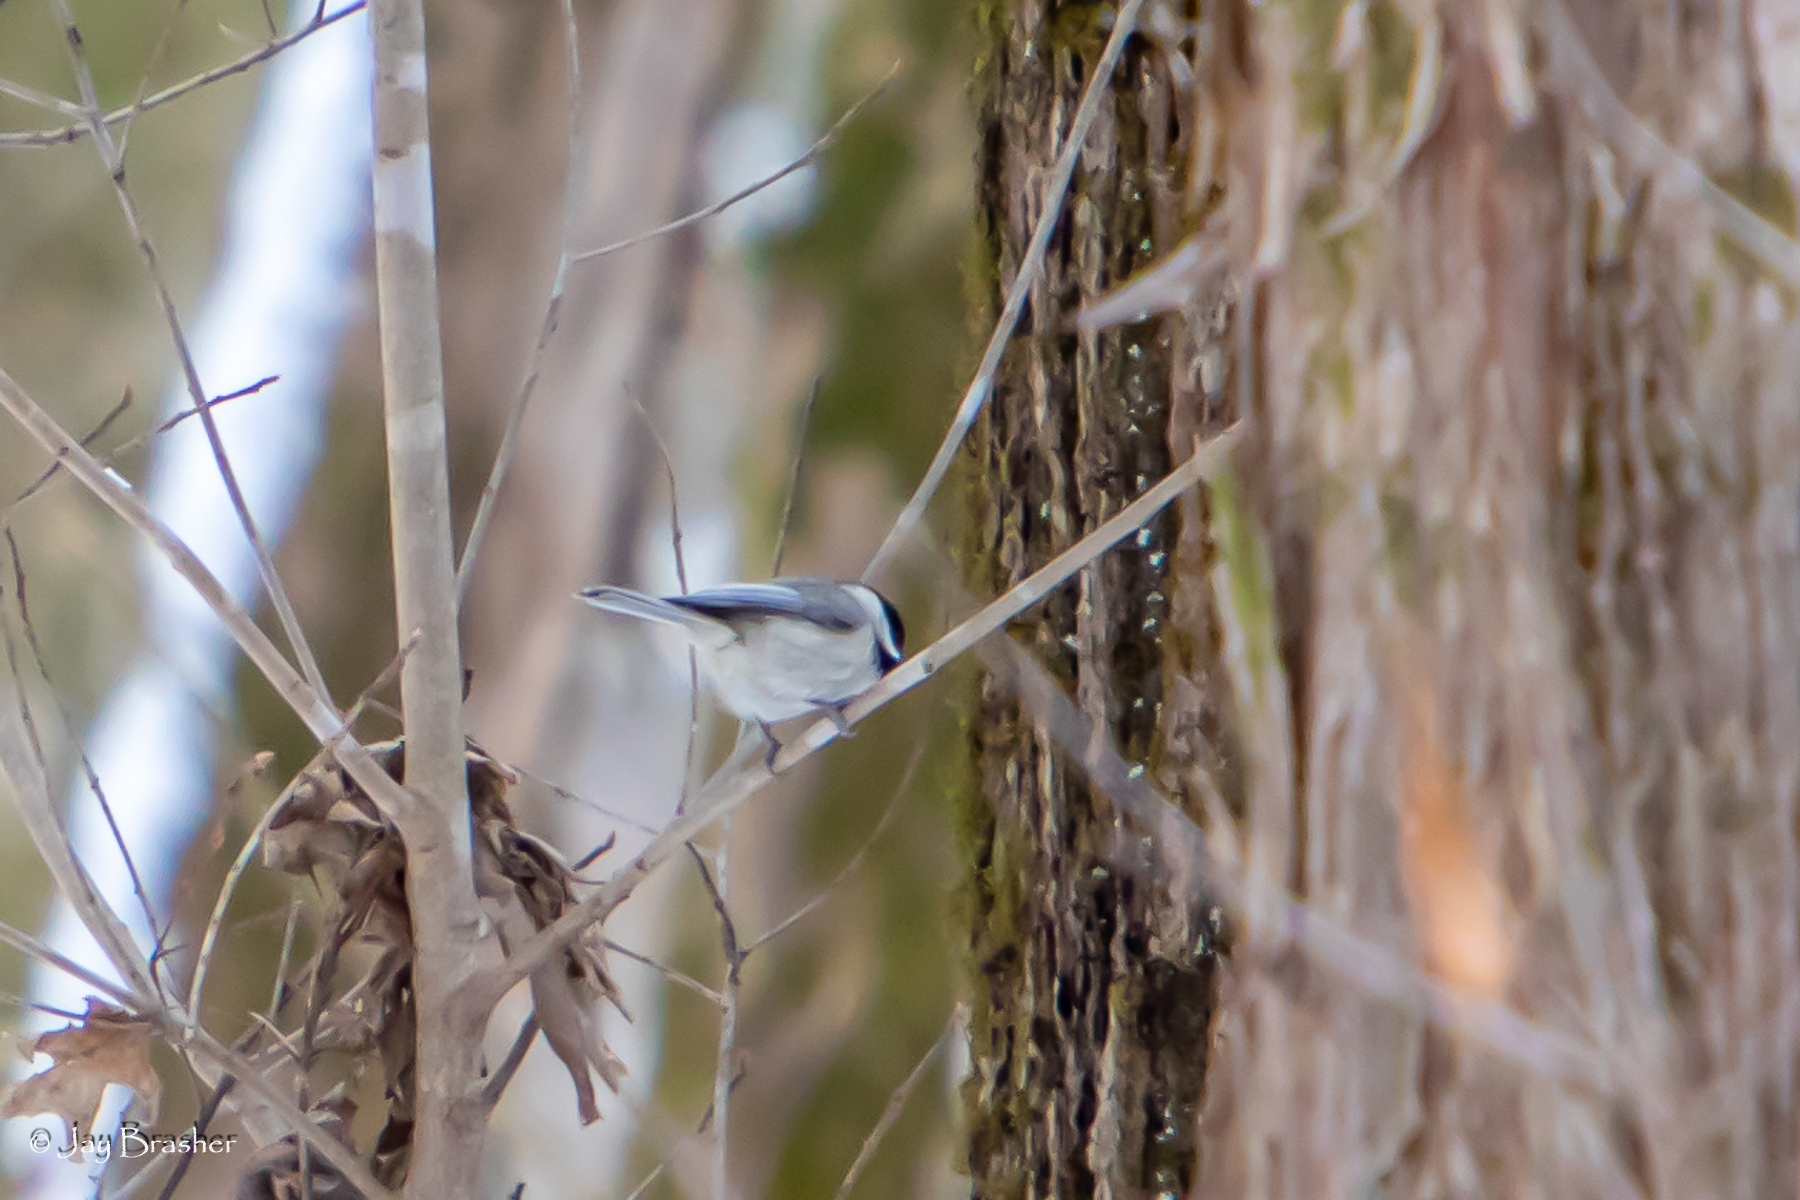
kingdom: Animalia
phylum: Chordata
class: Aves
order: Passeriformes
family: Paridae
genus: Poecile
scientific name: Poecile carolinensis
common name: Carolina chickadee
